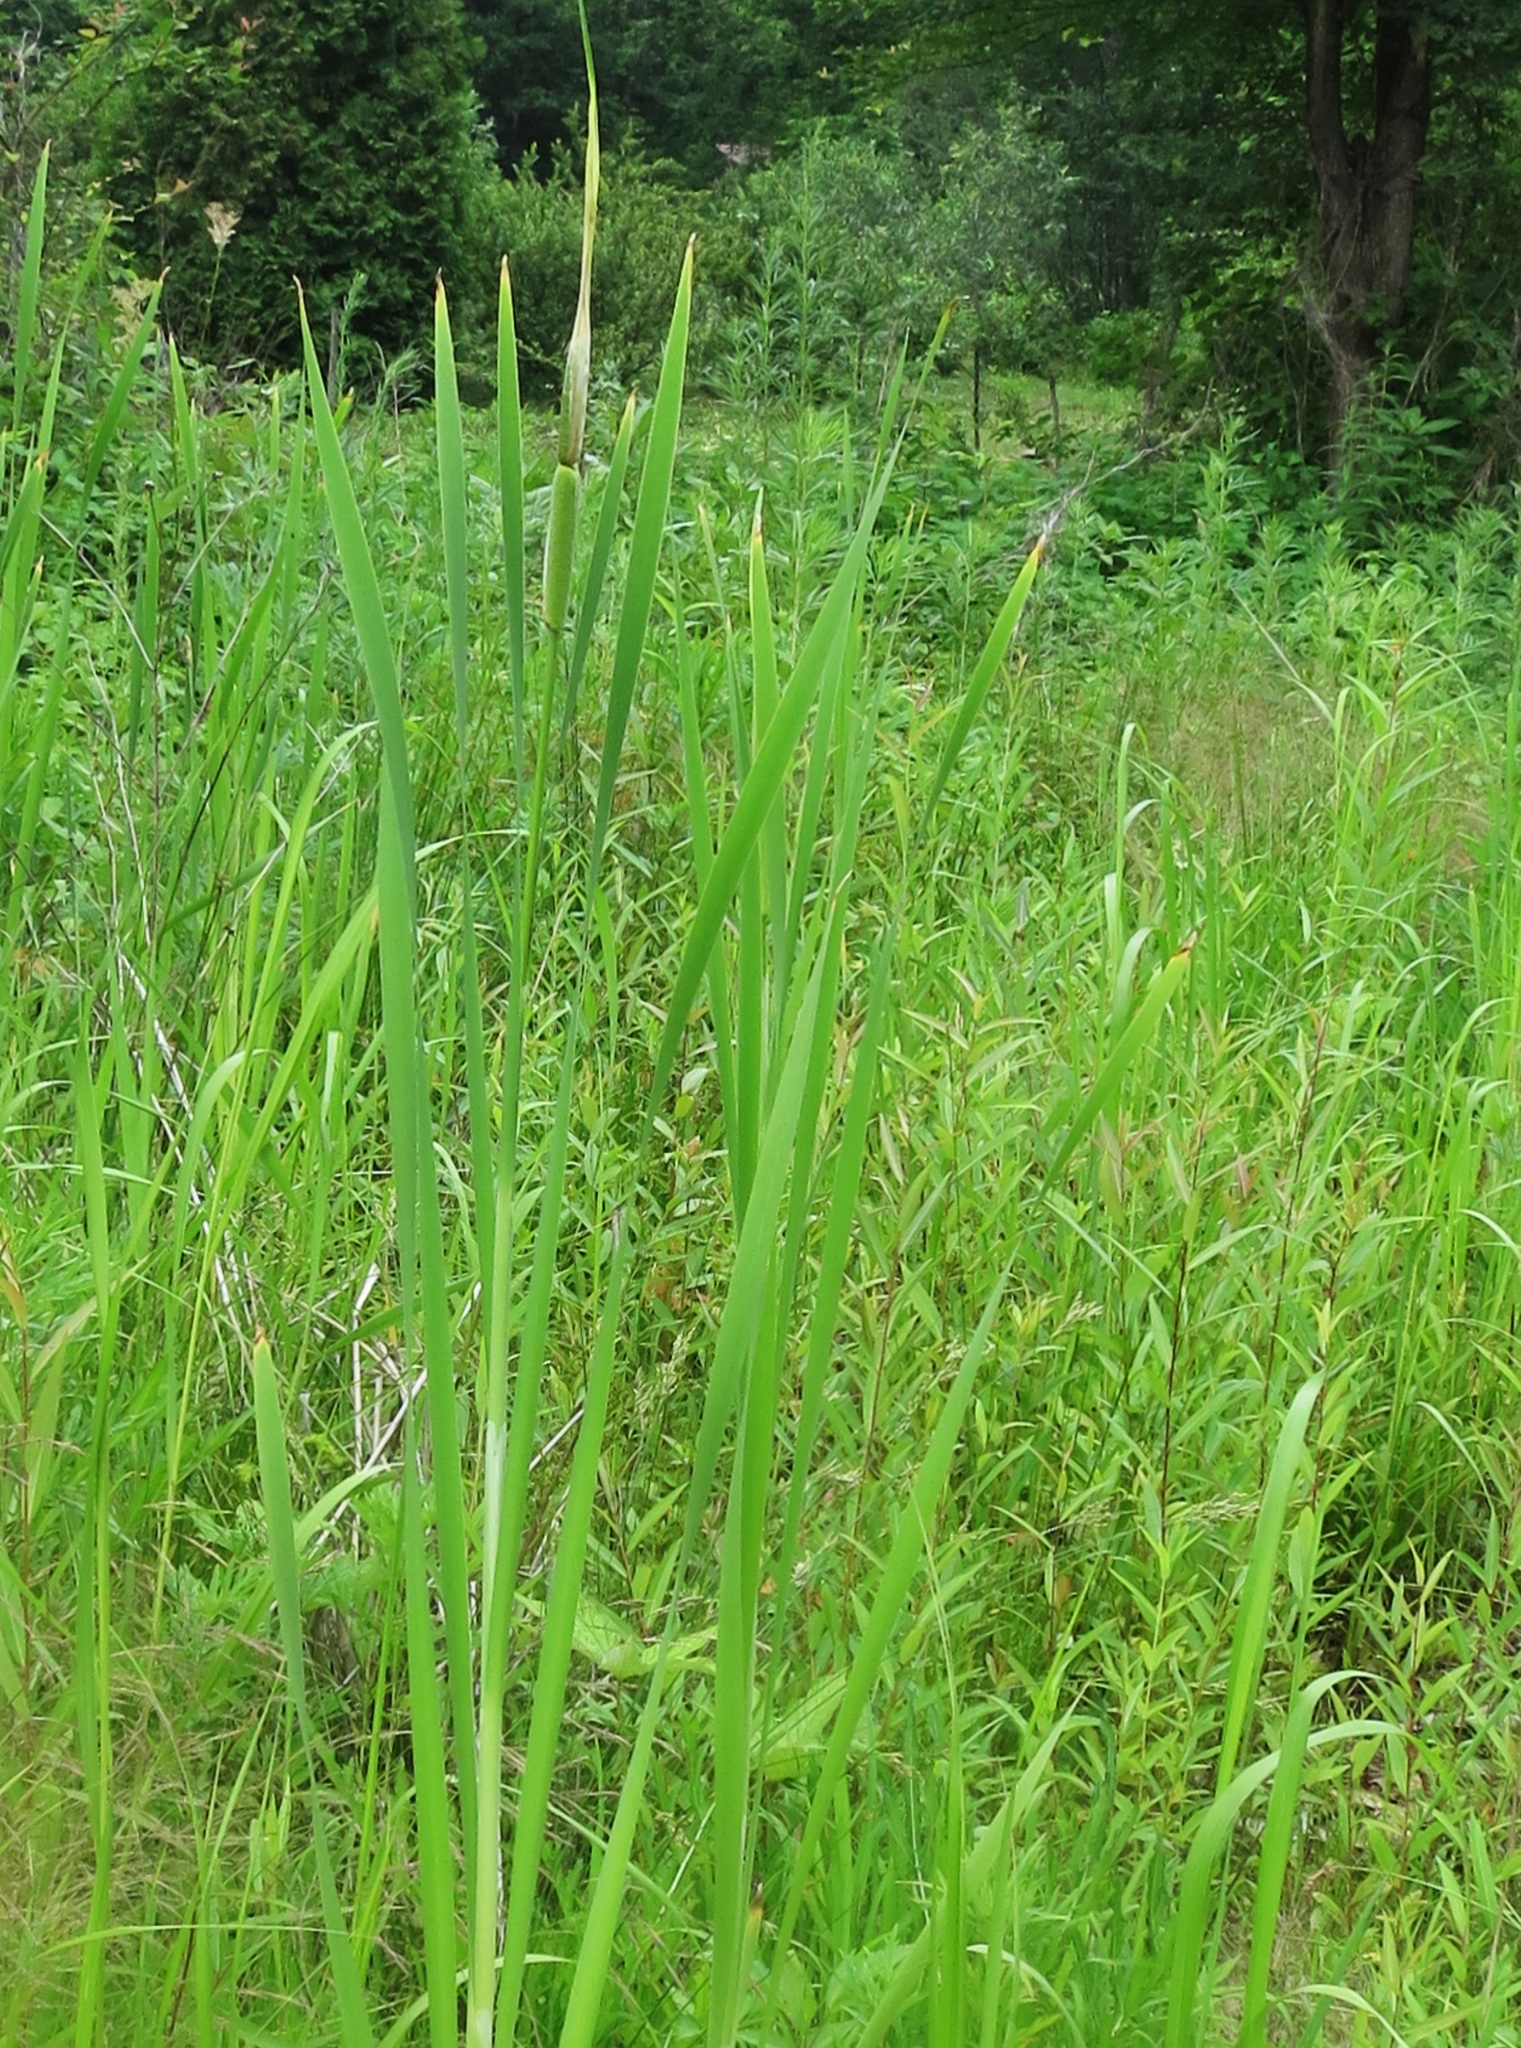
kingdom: Plantae
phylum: Tracheophyta
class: Liliopsida
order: Poales
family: Typhaceae
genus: Typha
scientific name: Typha latifolia
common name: Broadleaf cattail
